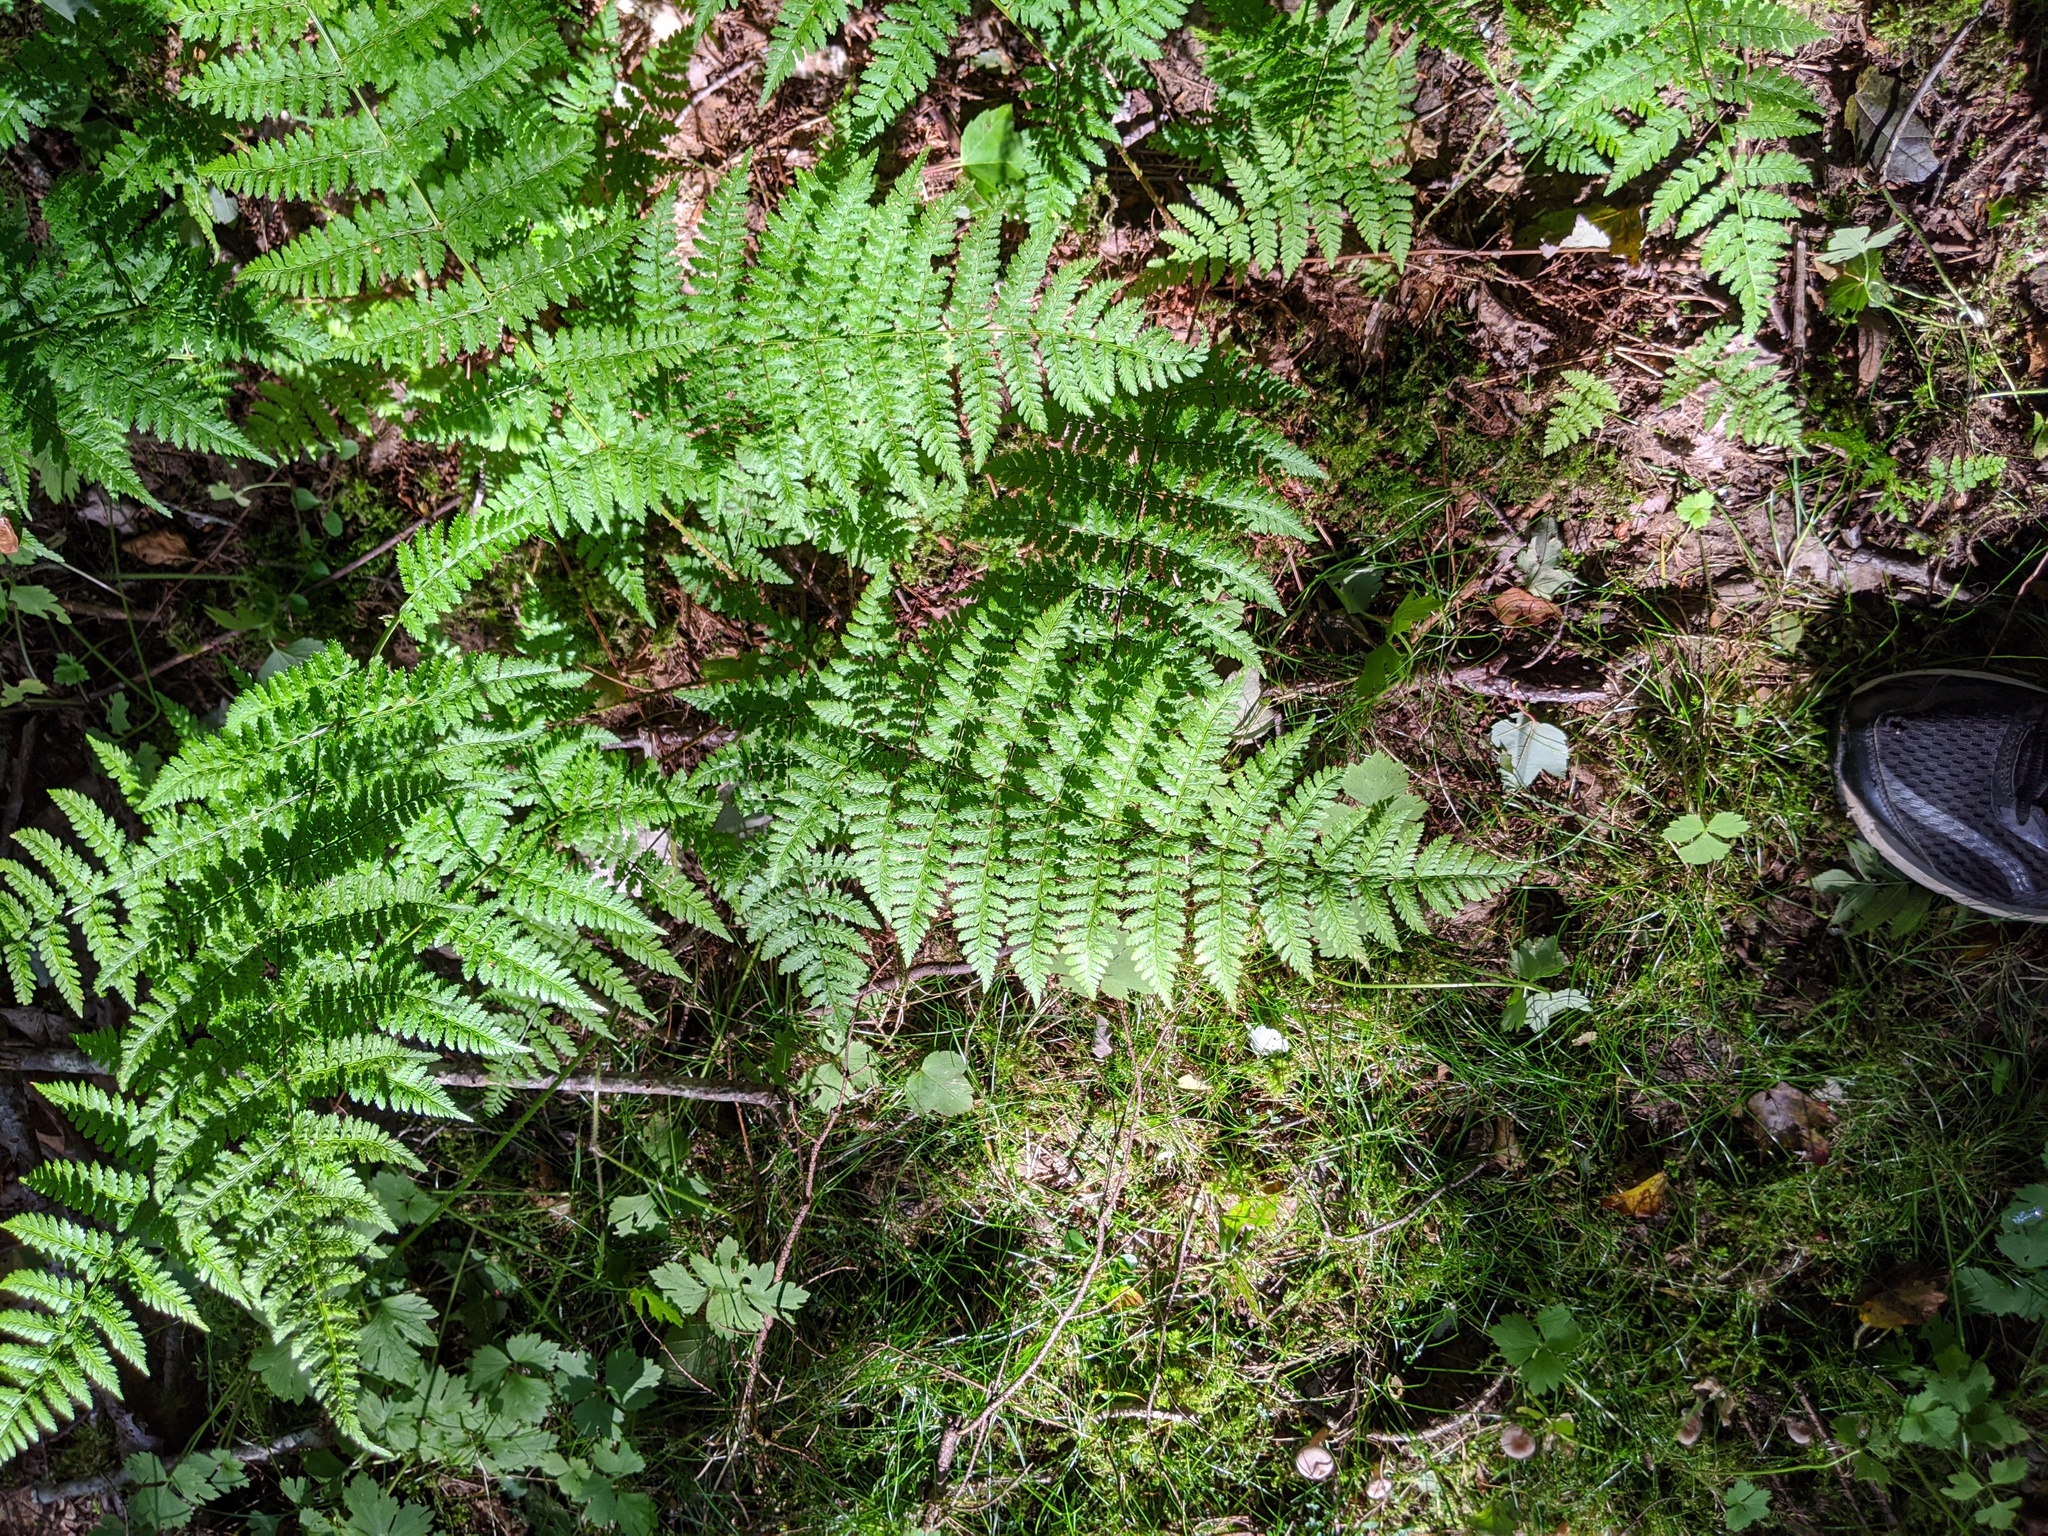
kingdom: Plantae
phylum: Tracheophyta
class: Polypodiopsida
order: Polypodiales
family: Dryopteridaceae
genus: Dryopteris
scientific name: Dryopteris intermedia
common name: Evergreen wood fern
